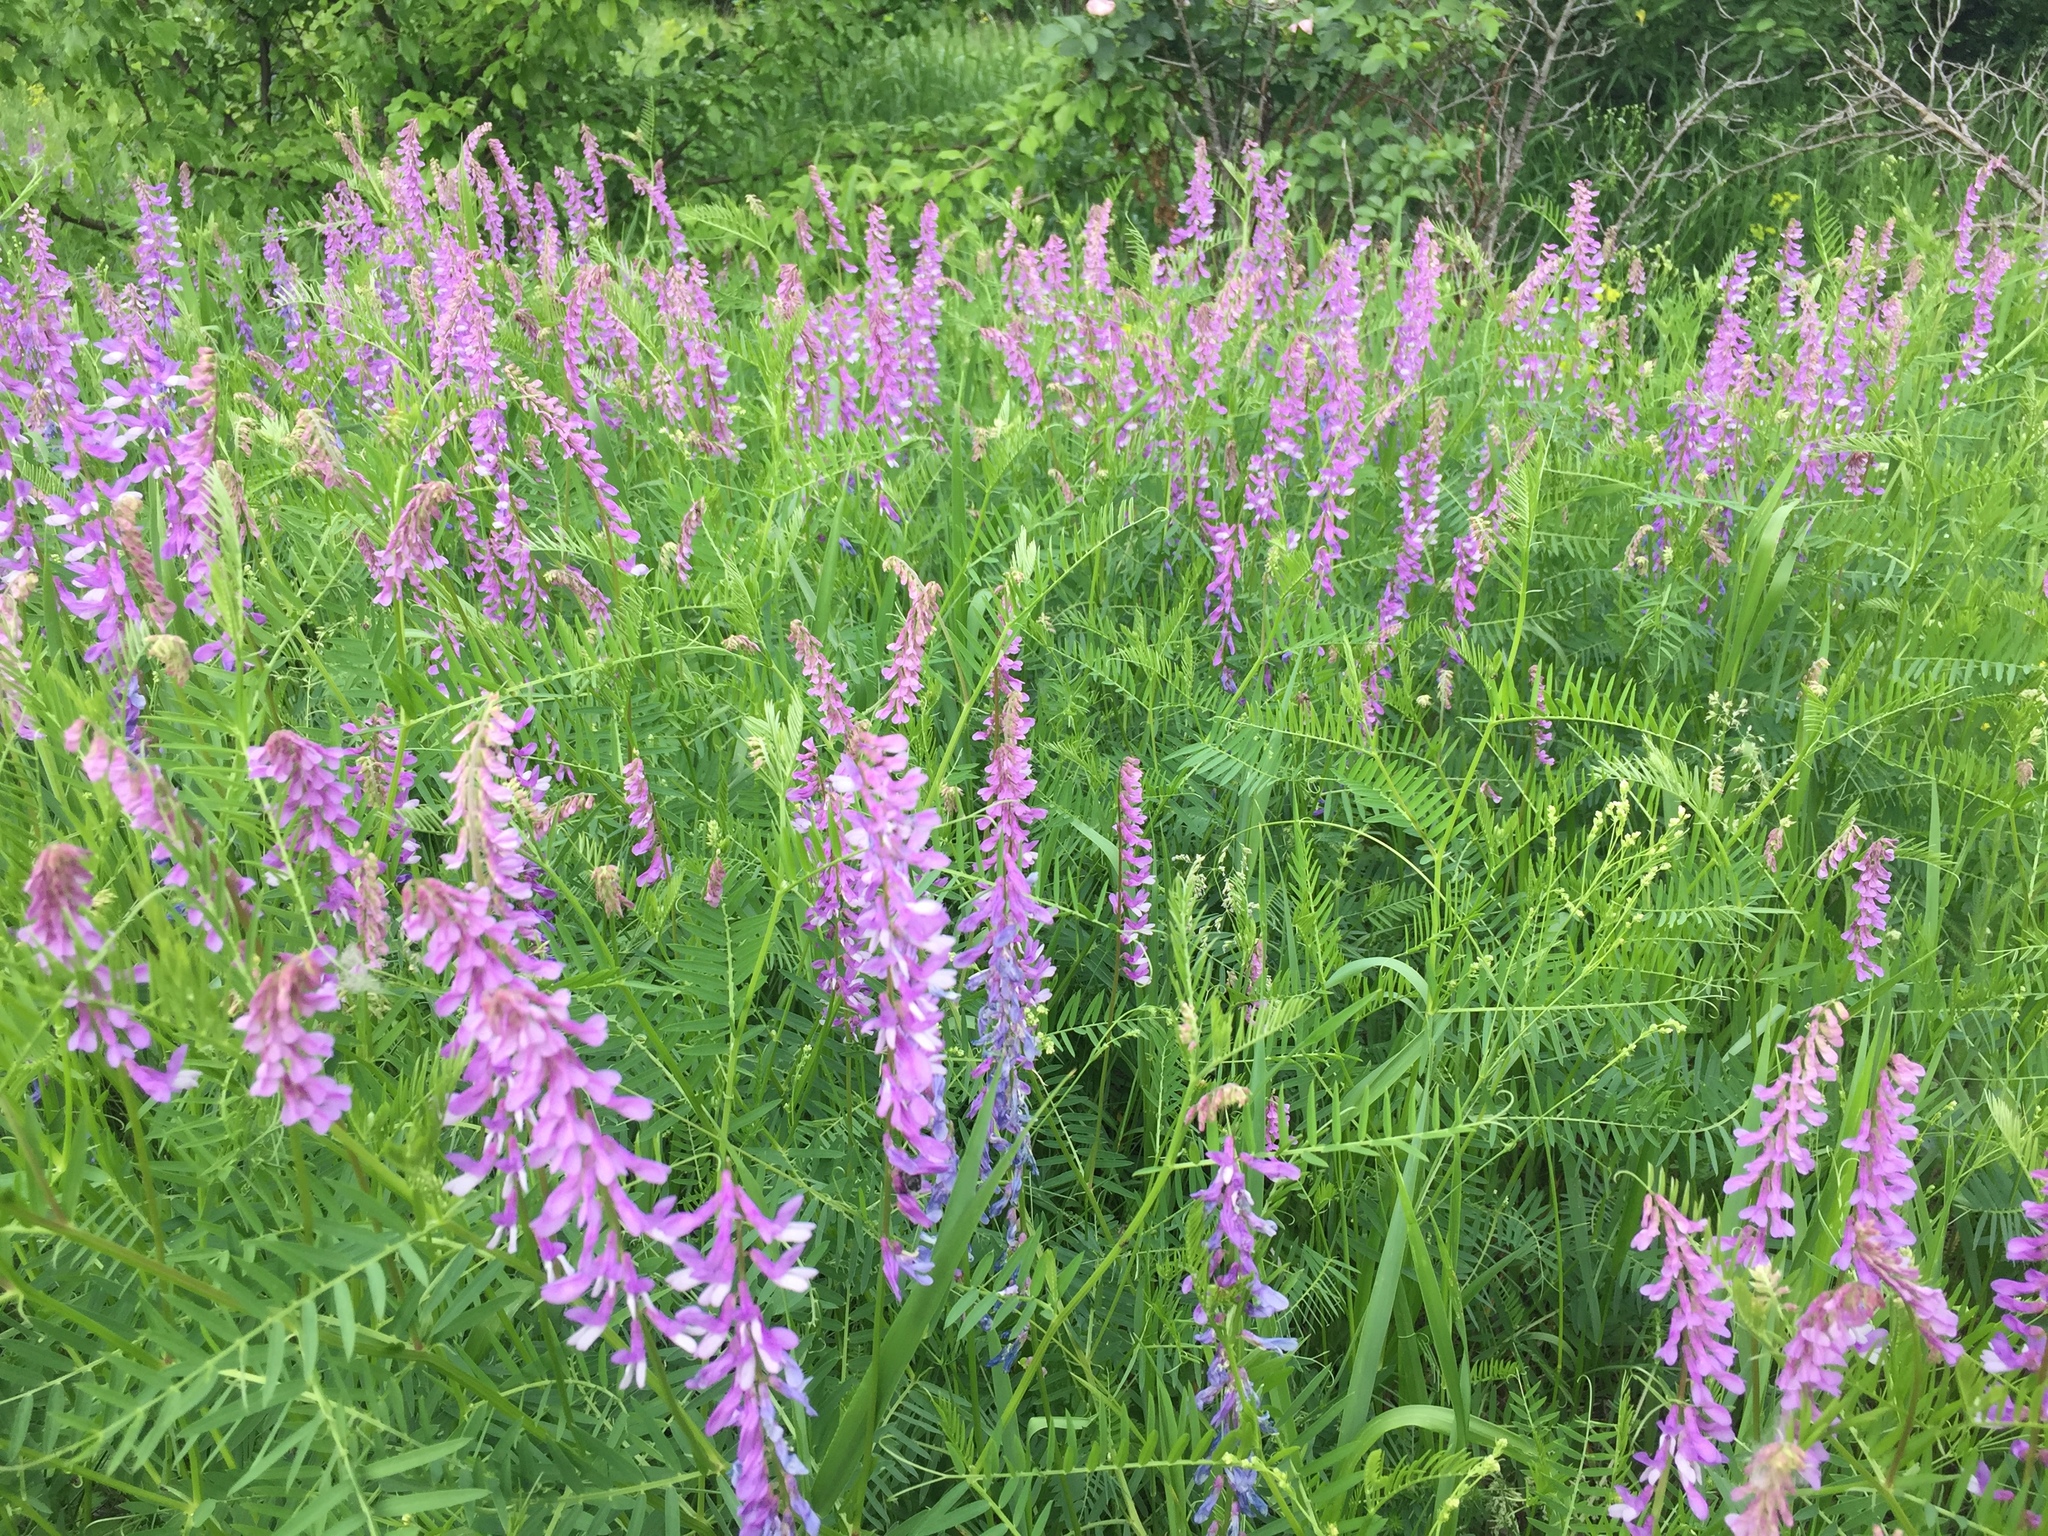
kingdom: Plantae
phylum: Tracheophyta
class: Magnoliopsida
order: Fabales
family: Fabaceae
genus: Vicia
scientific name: Vicia tenuifolia
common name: Fine-leaved vetch
